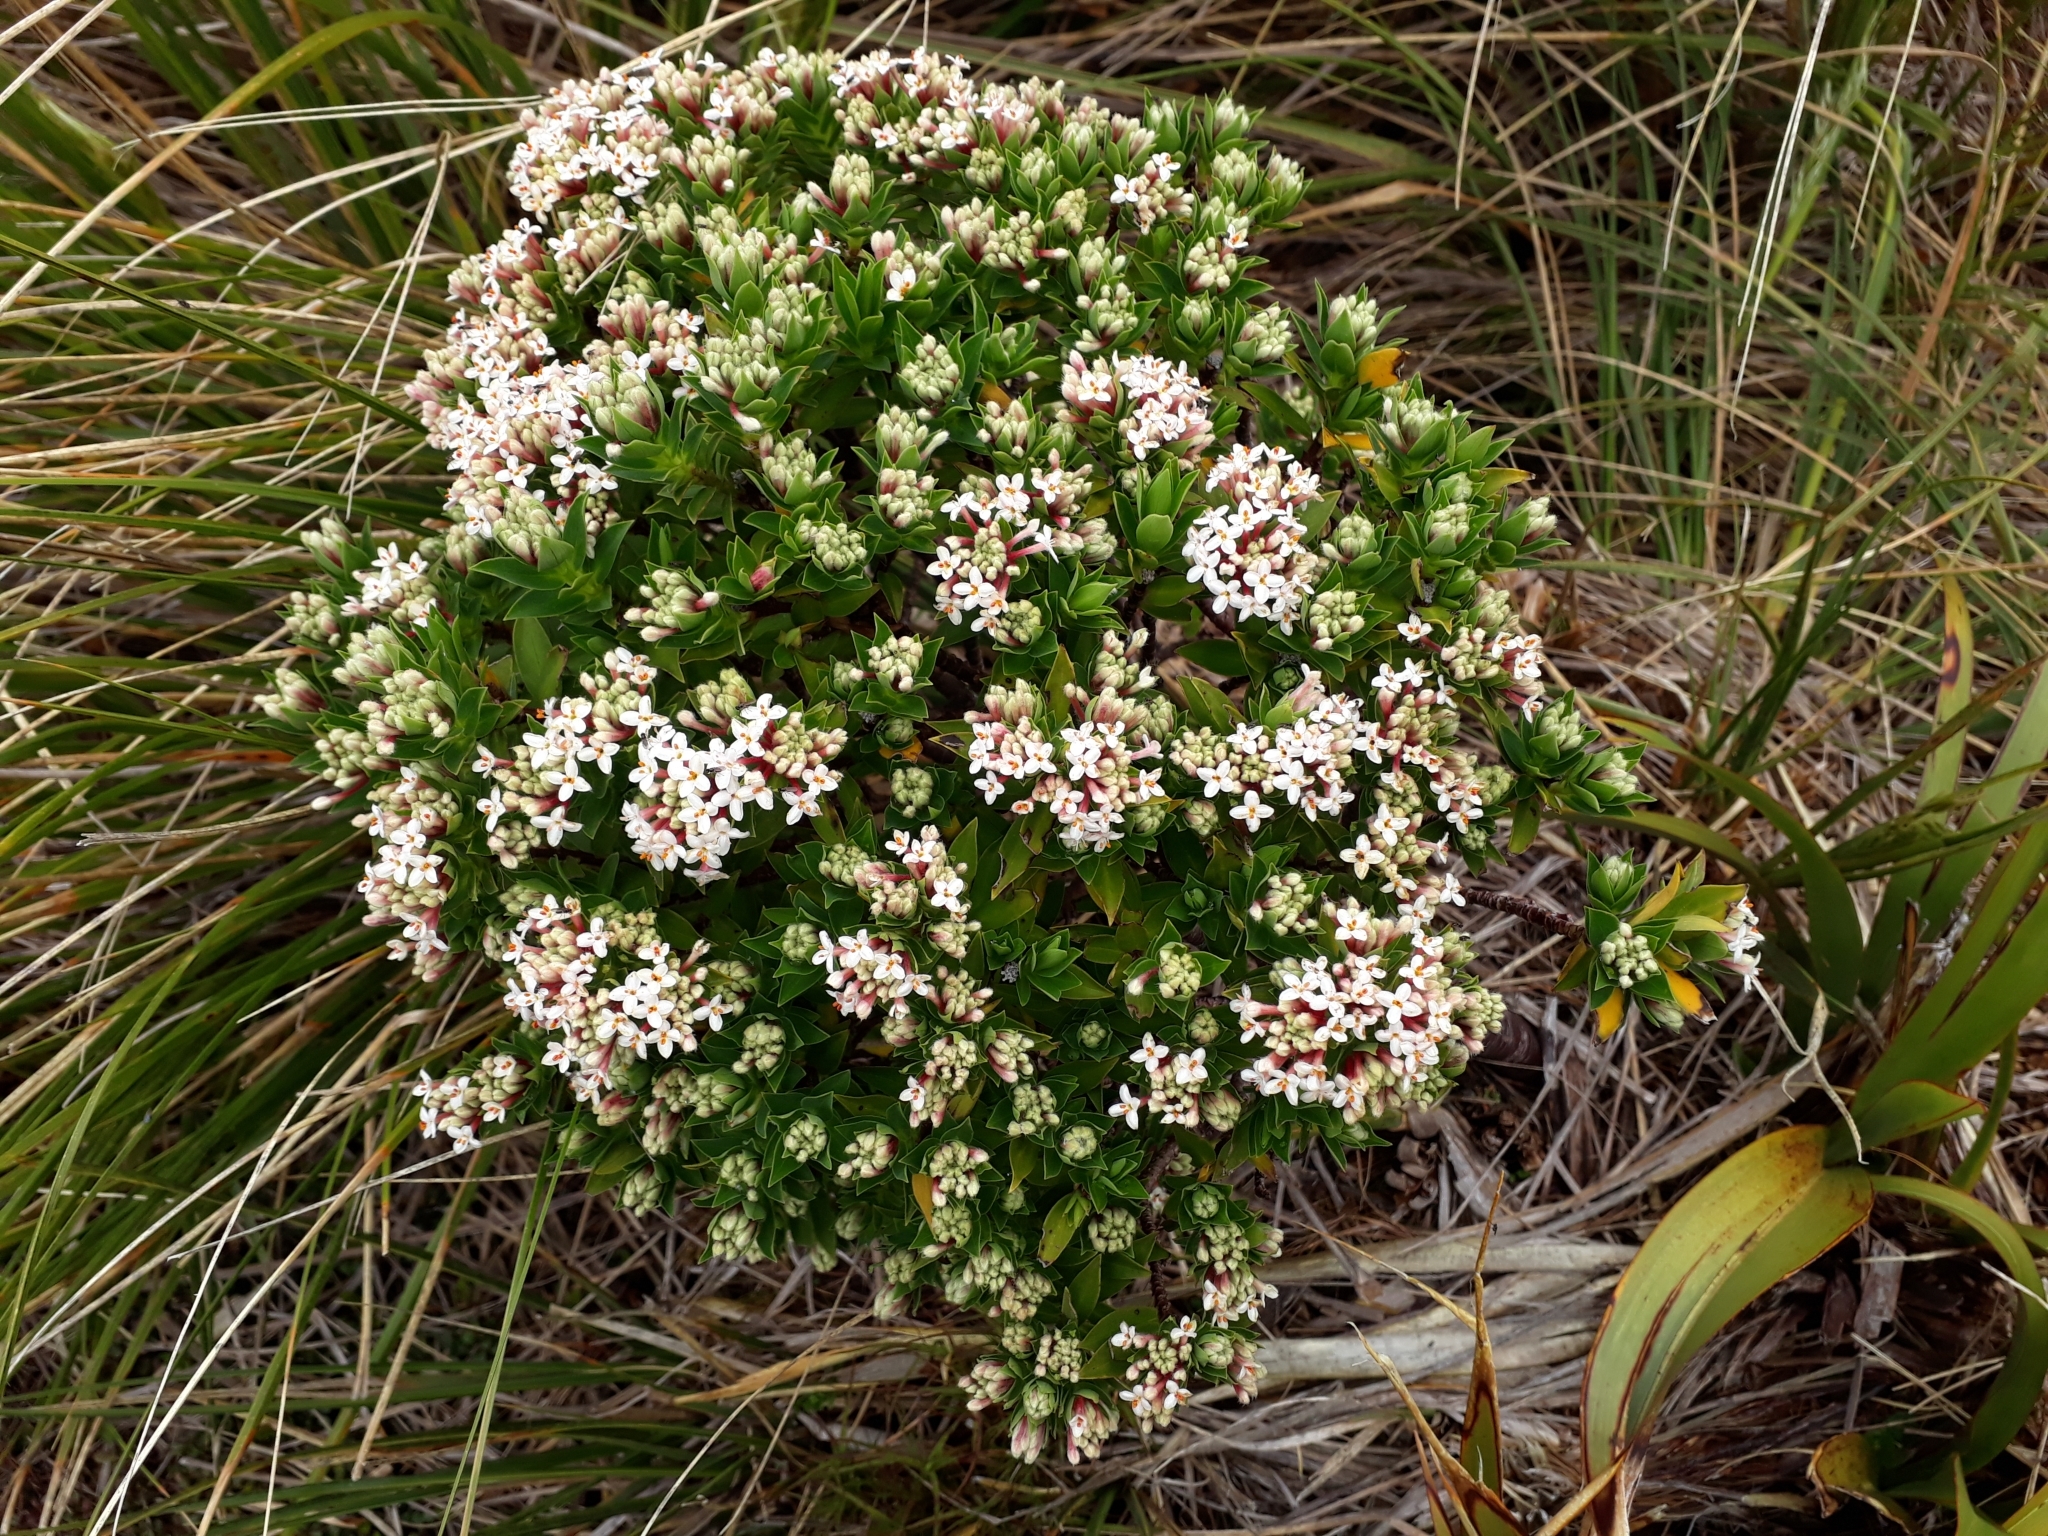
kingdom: Plantae
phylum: Tracheophyta
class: Magnoliopsida
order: Malvales
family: Thymelaeaceae
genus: Pimelea
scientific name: Pimelea gnidia
